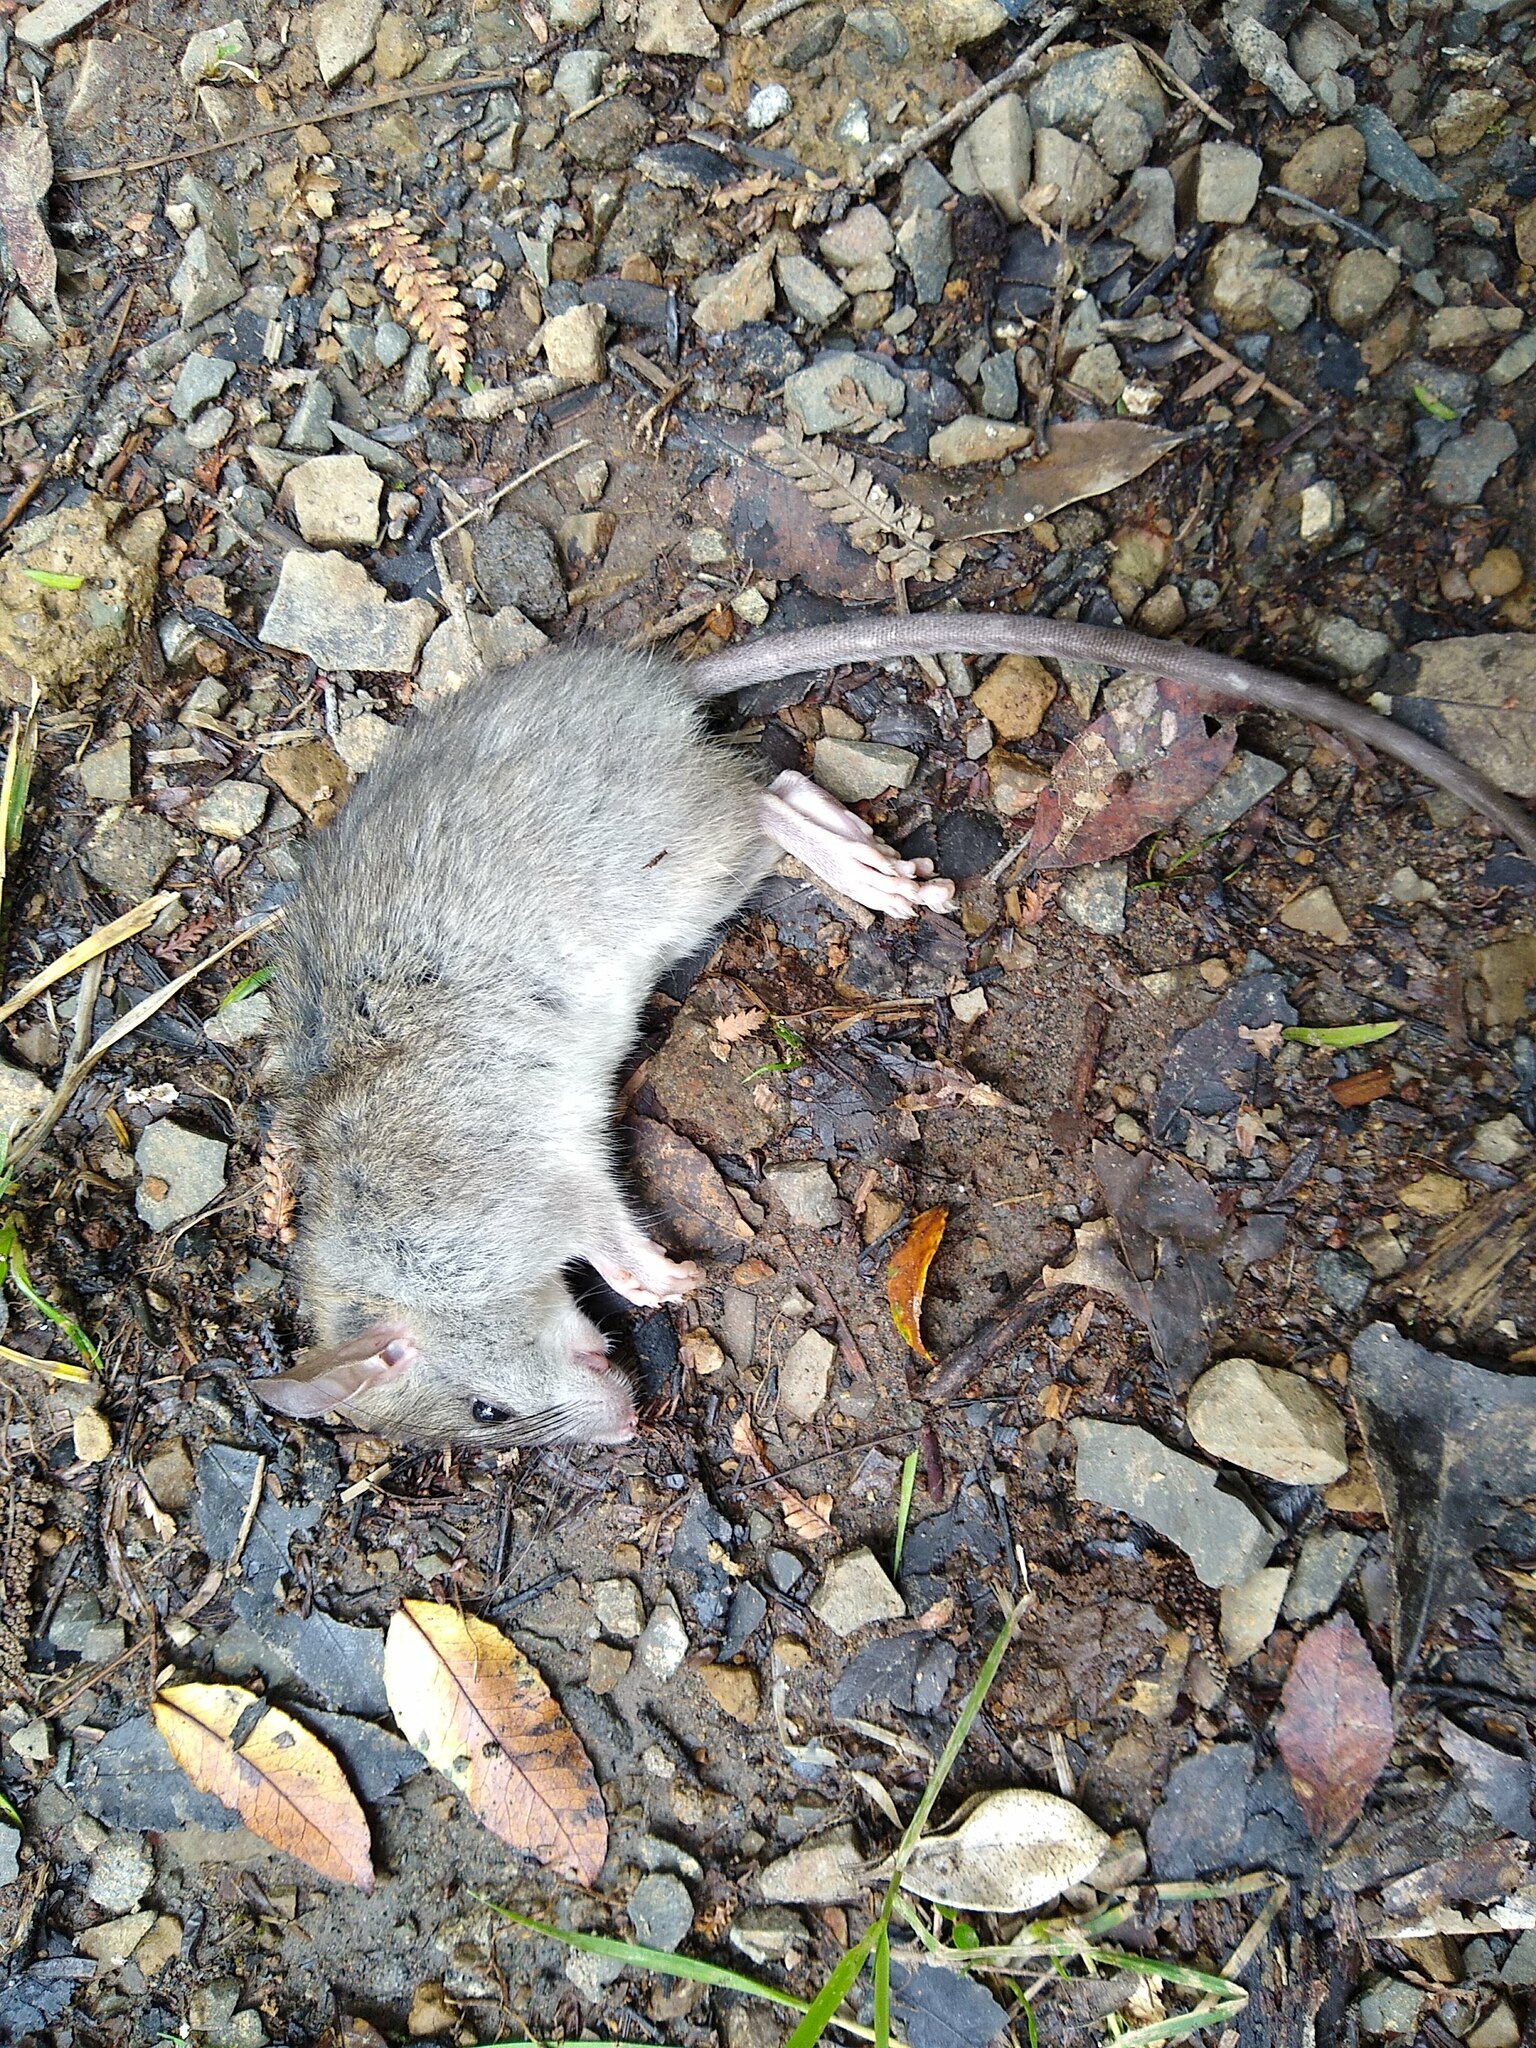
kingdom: Animalia
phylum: Chordata
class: Mammalia
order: Rodentia
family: Muridae
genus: Rattus
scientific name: Rattus rattus
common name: Black rat
